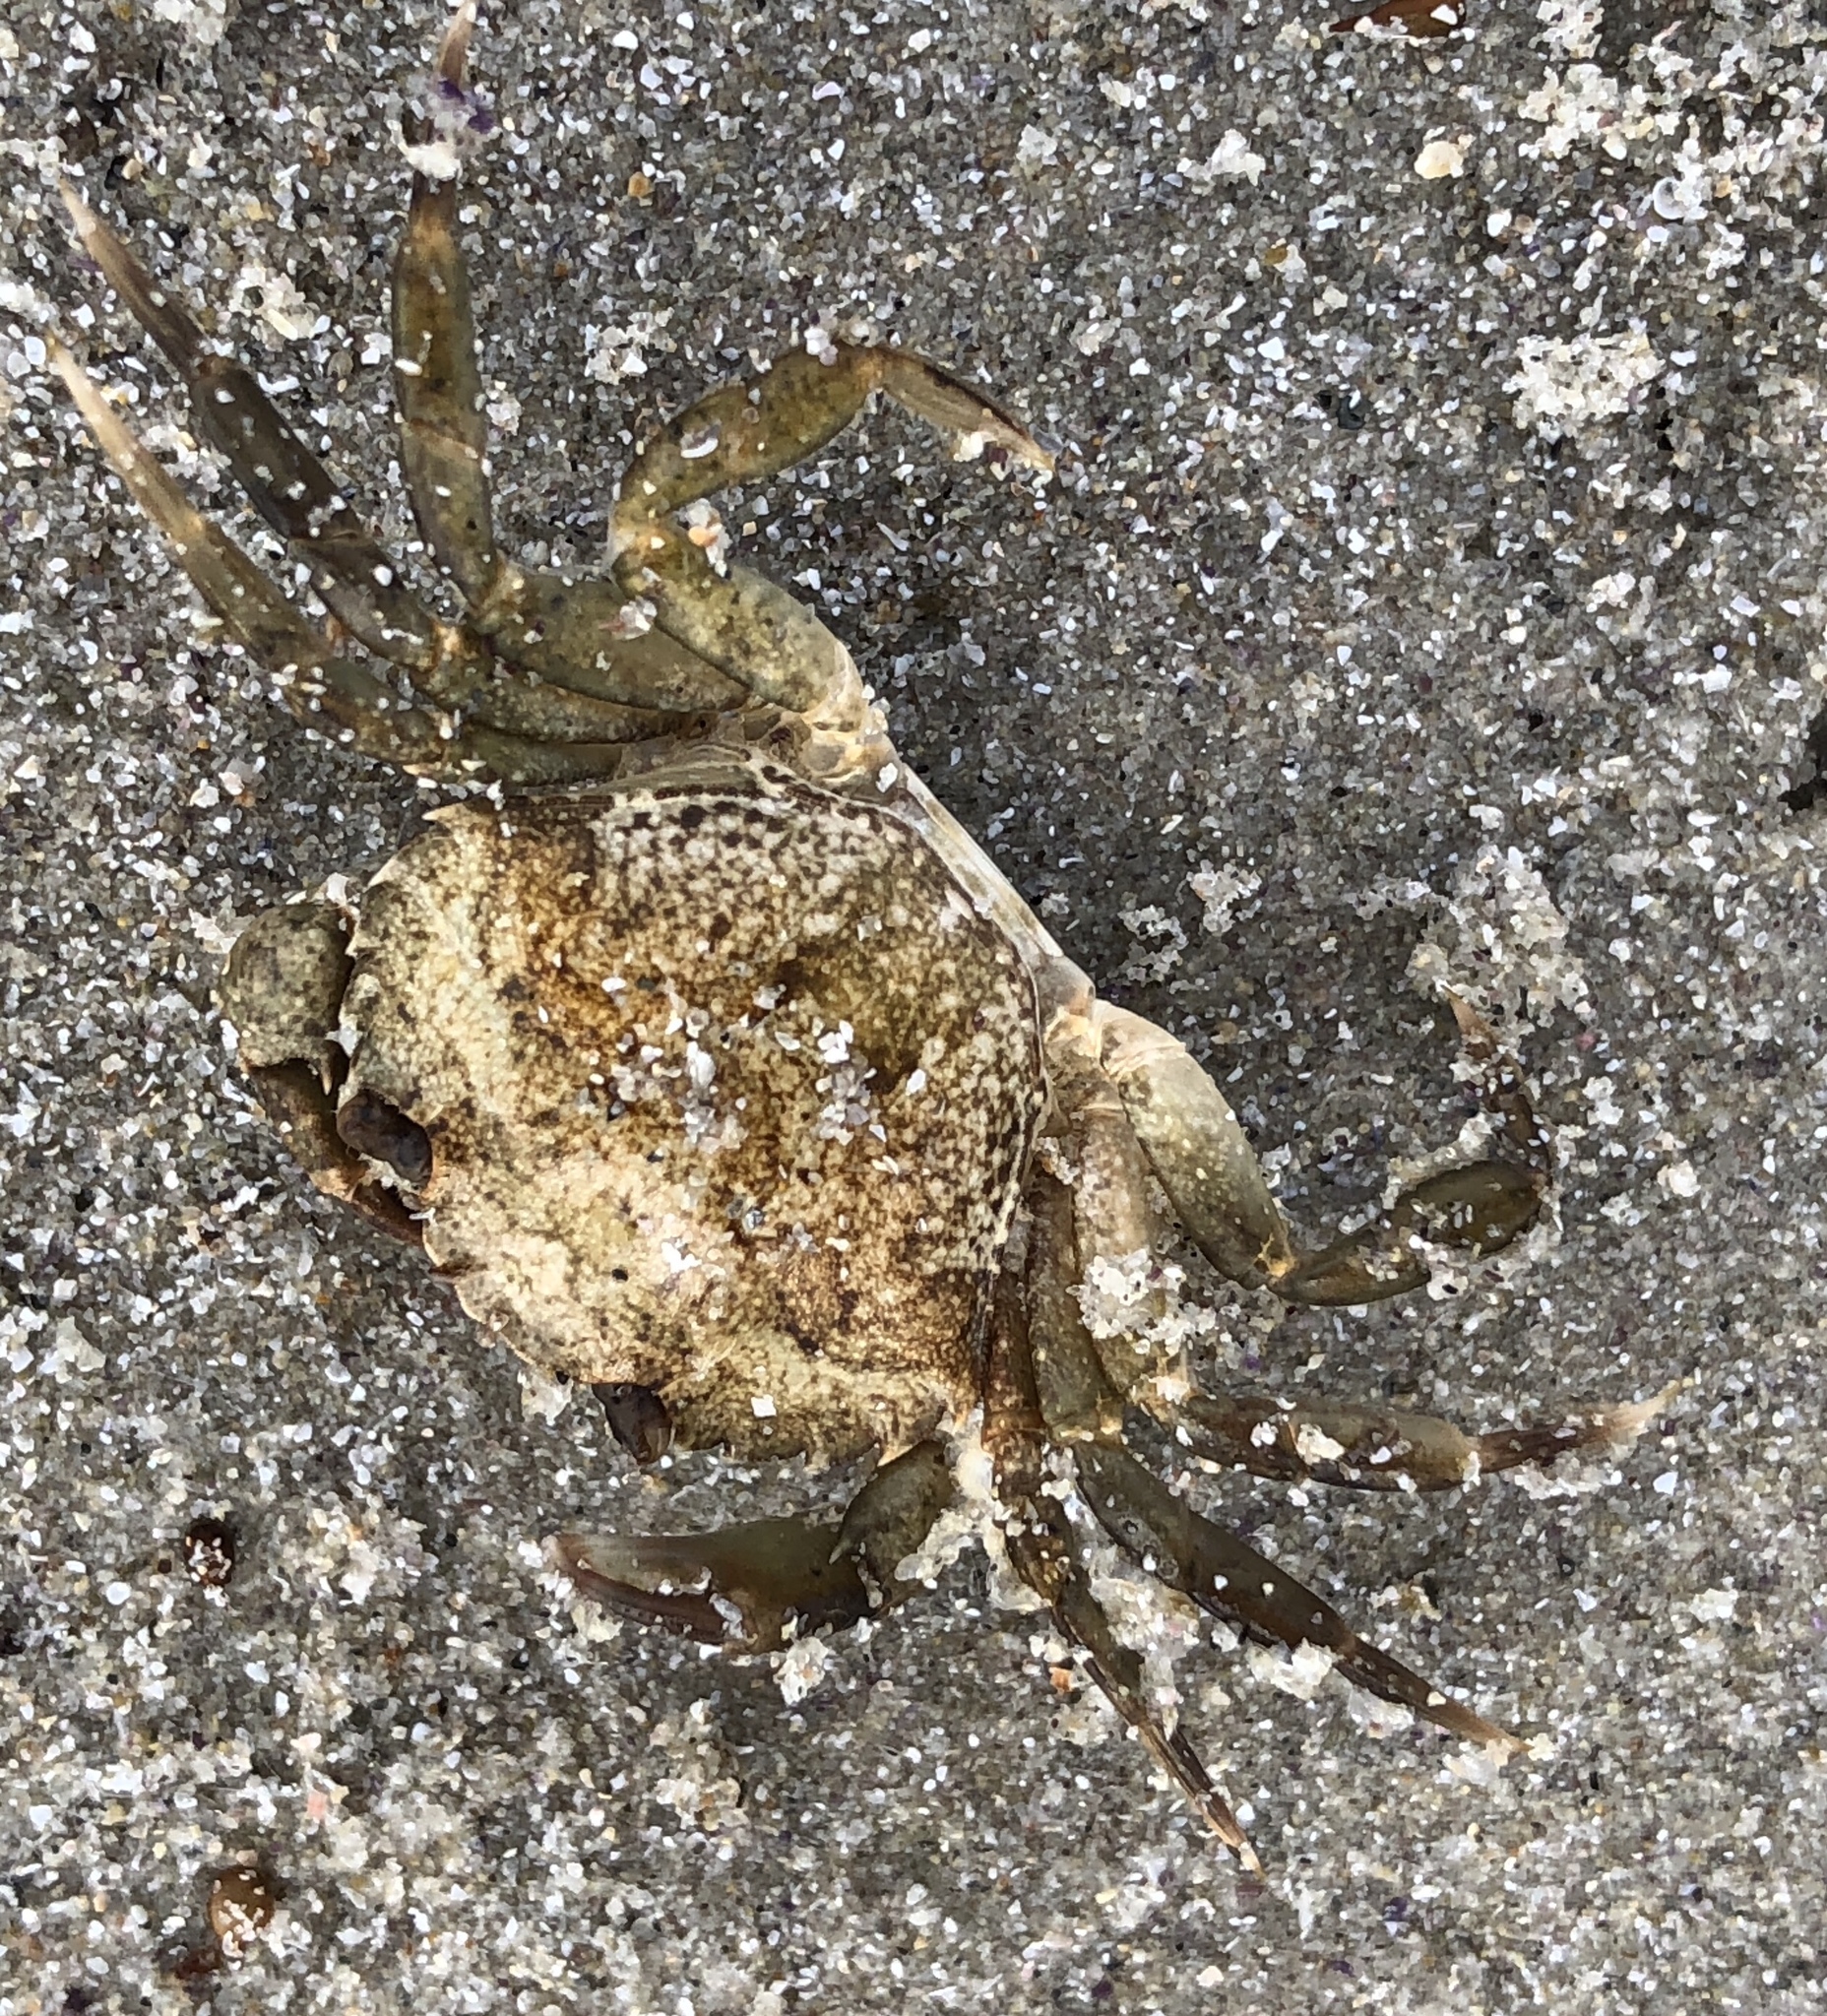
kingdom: Animalia
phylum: Arthropoda
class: Malacostraca
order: Decapoda
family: Carcinidae
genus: Carcinus
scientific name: Carcinus maenas
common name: European green crab
